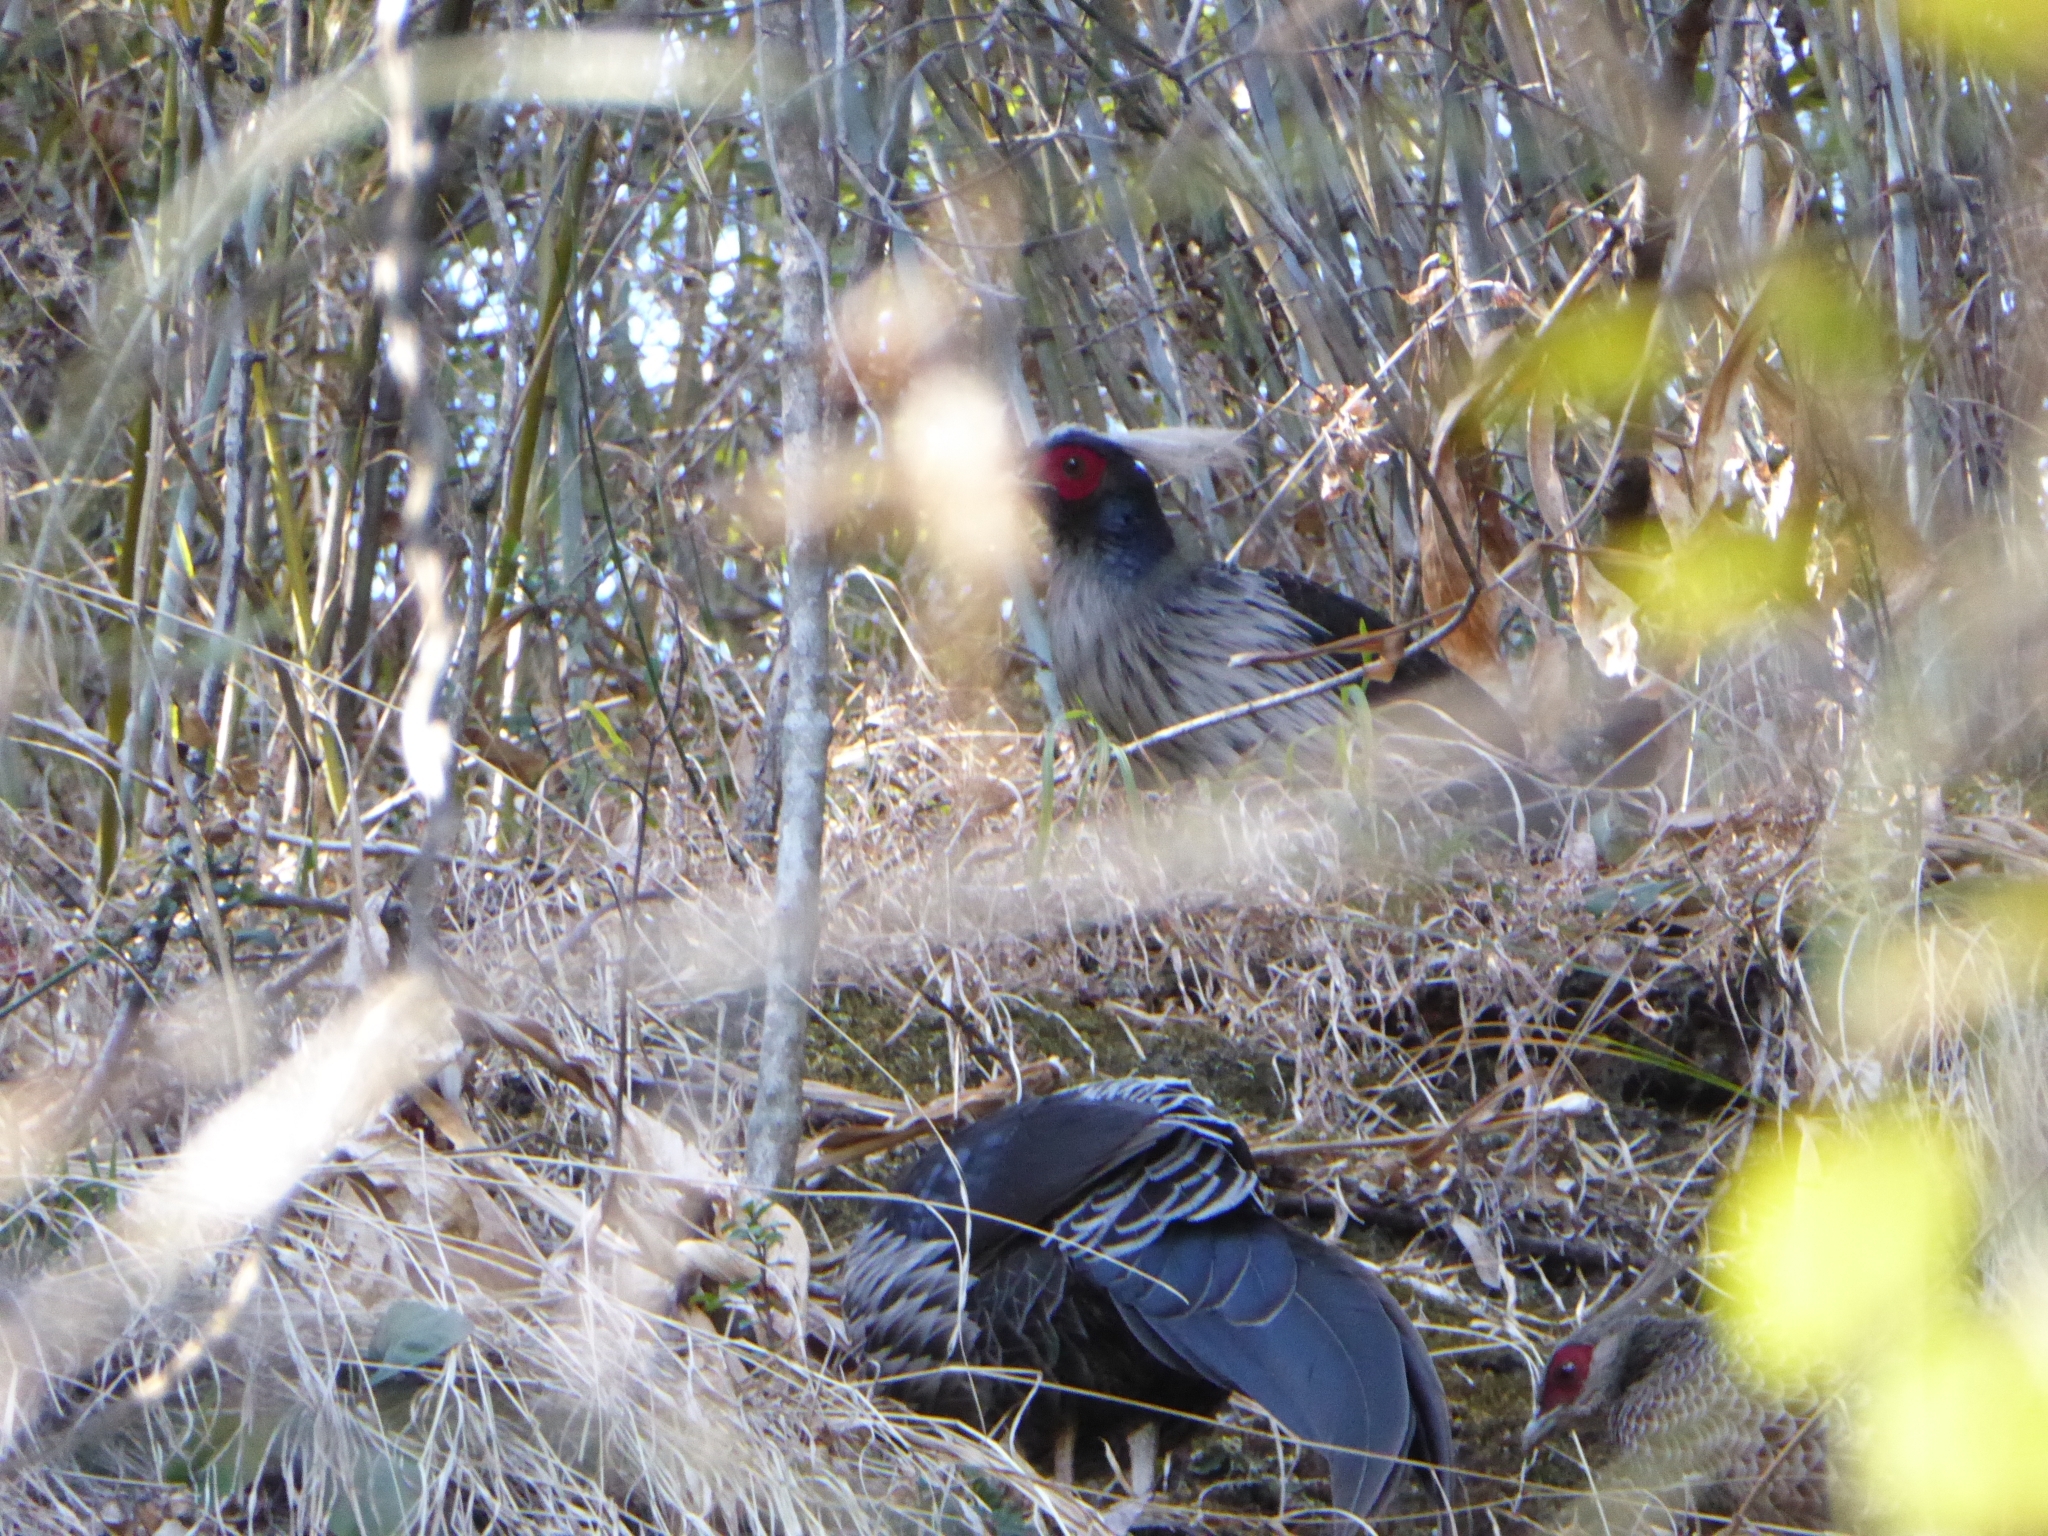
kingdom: Animalia
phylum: Chordata
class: Aves
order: Galliformes
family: Phasianidae
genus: Lophura
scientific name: Lophura leucomelanos
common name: Kalij pheasant
